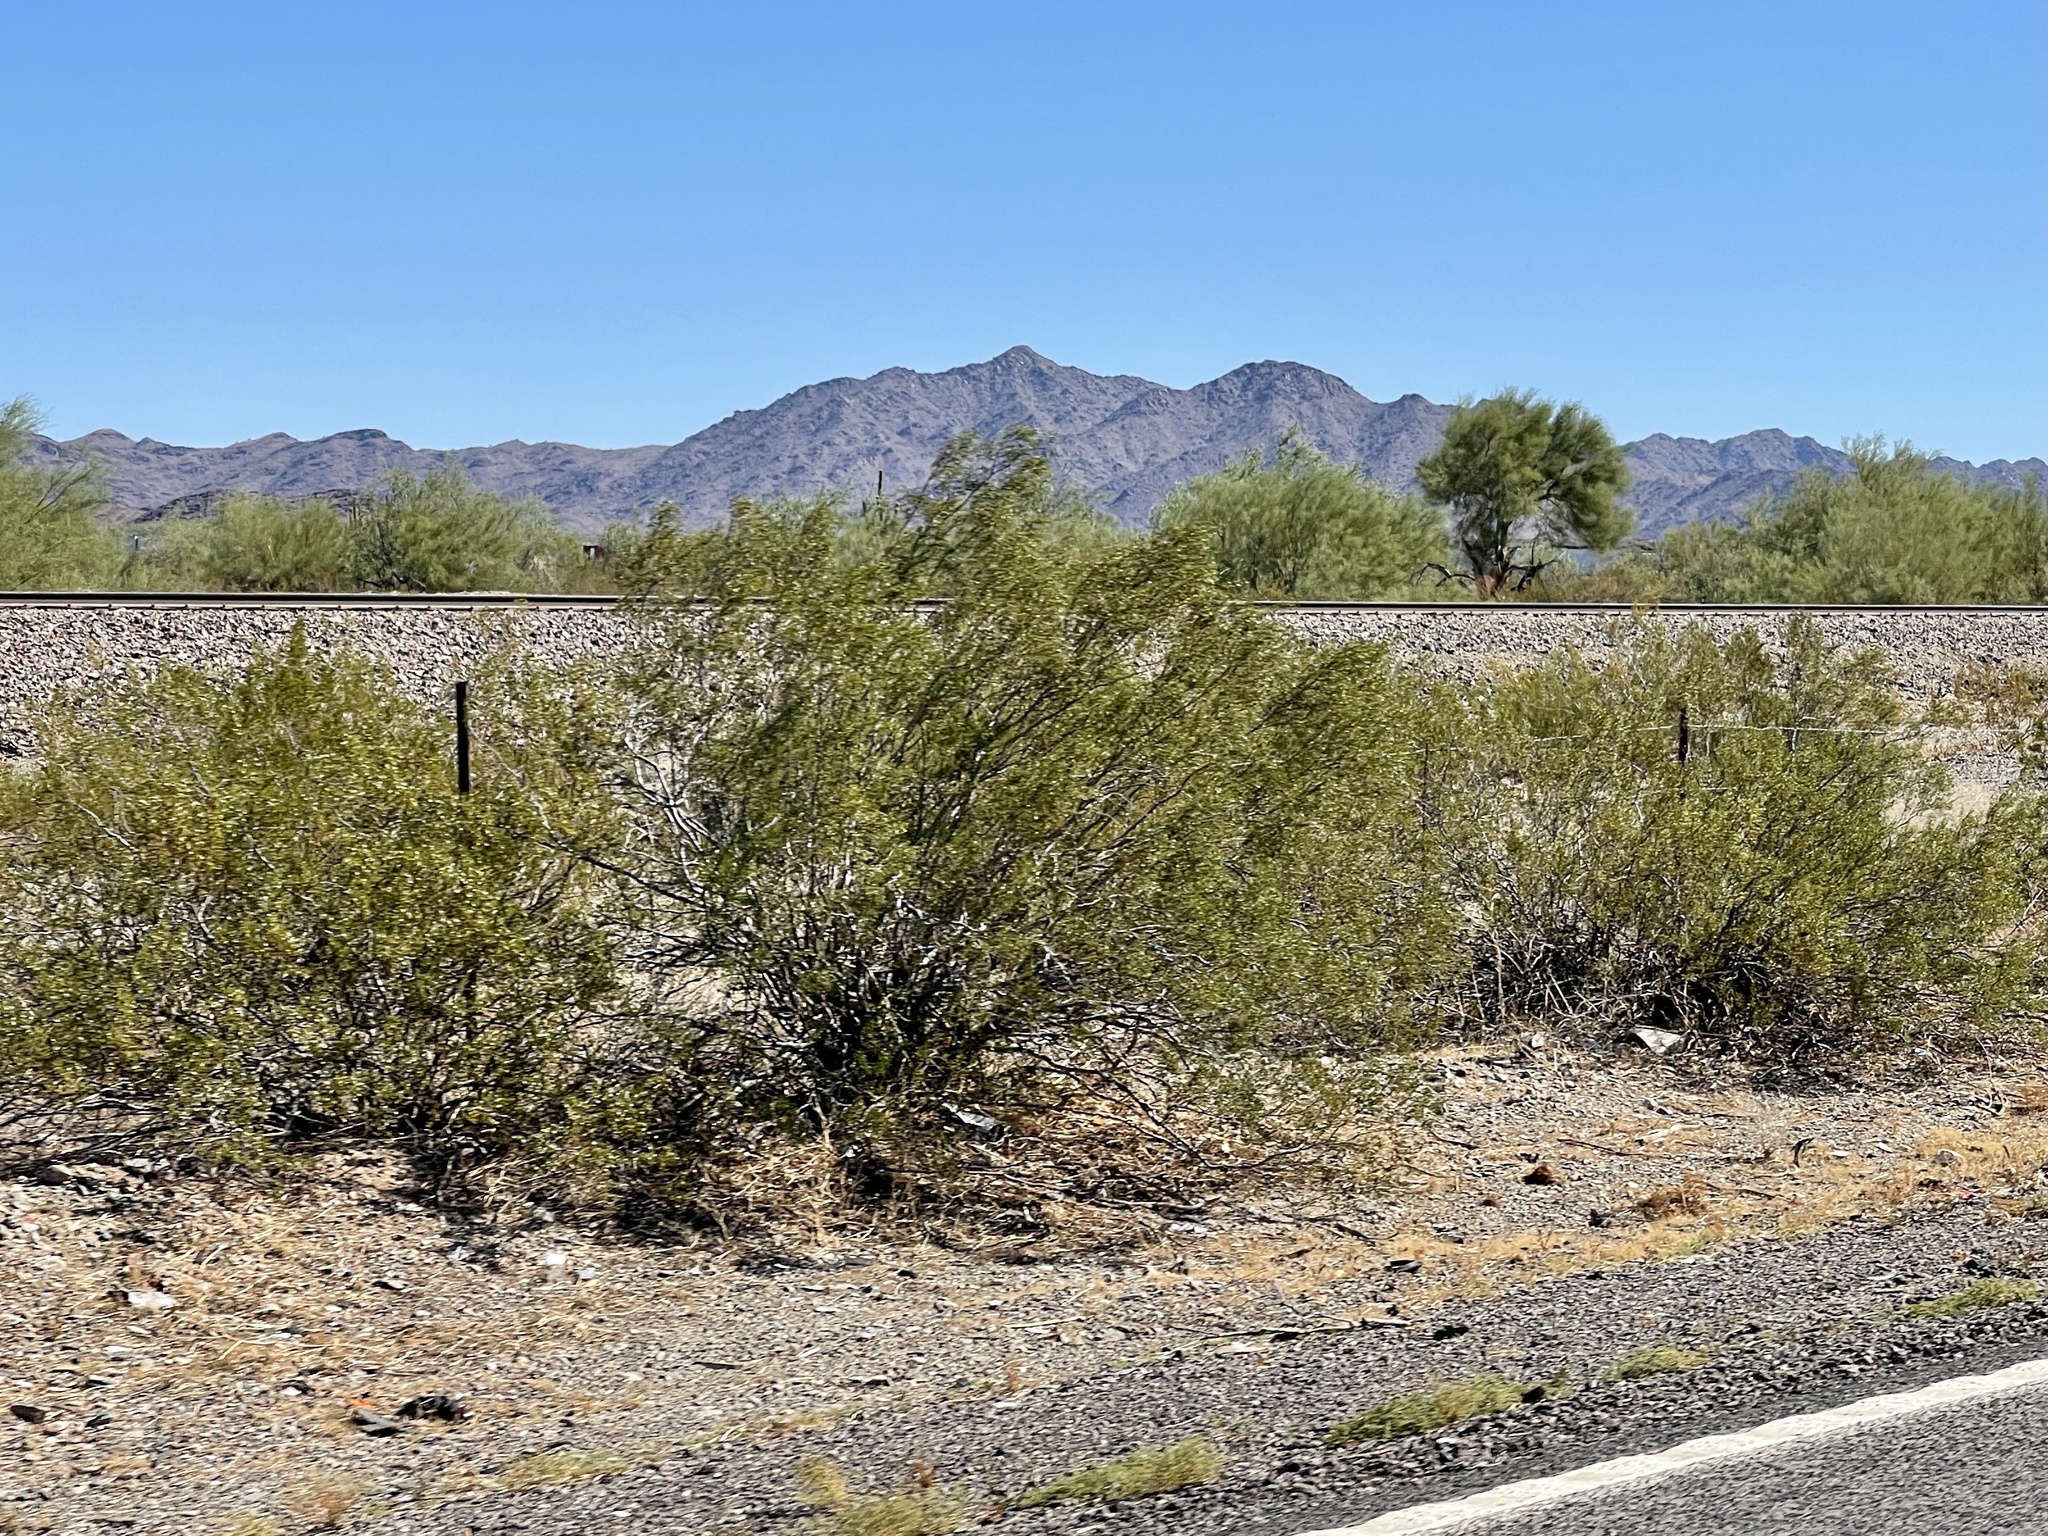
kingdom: Plantae
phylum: Tracheophyta
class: Magnoliopsida
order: Zygophyllales
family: Zygophyllaceae
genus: Larrea
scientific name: Larrea tridentata
